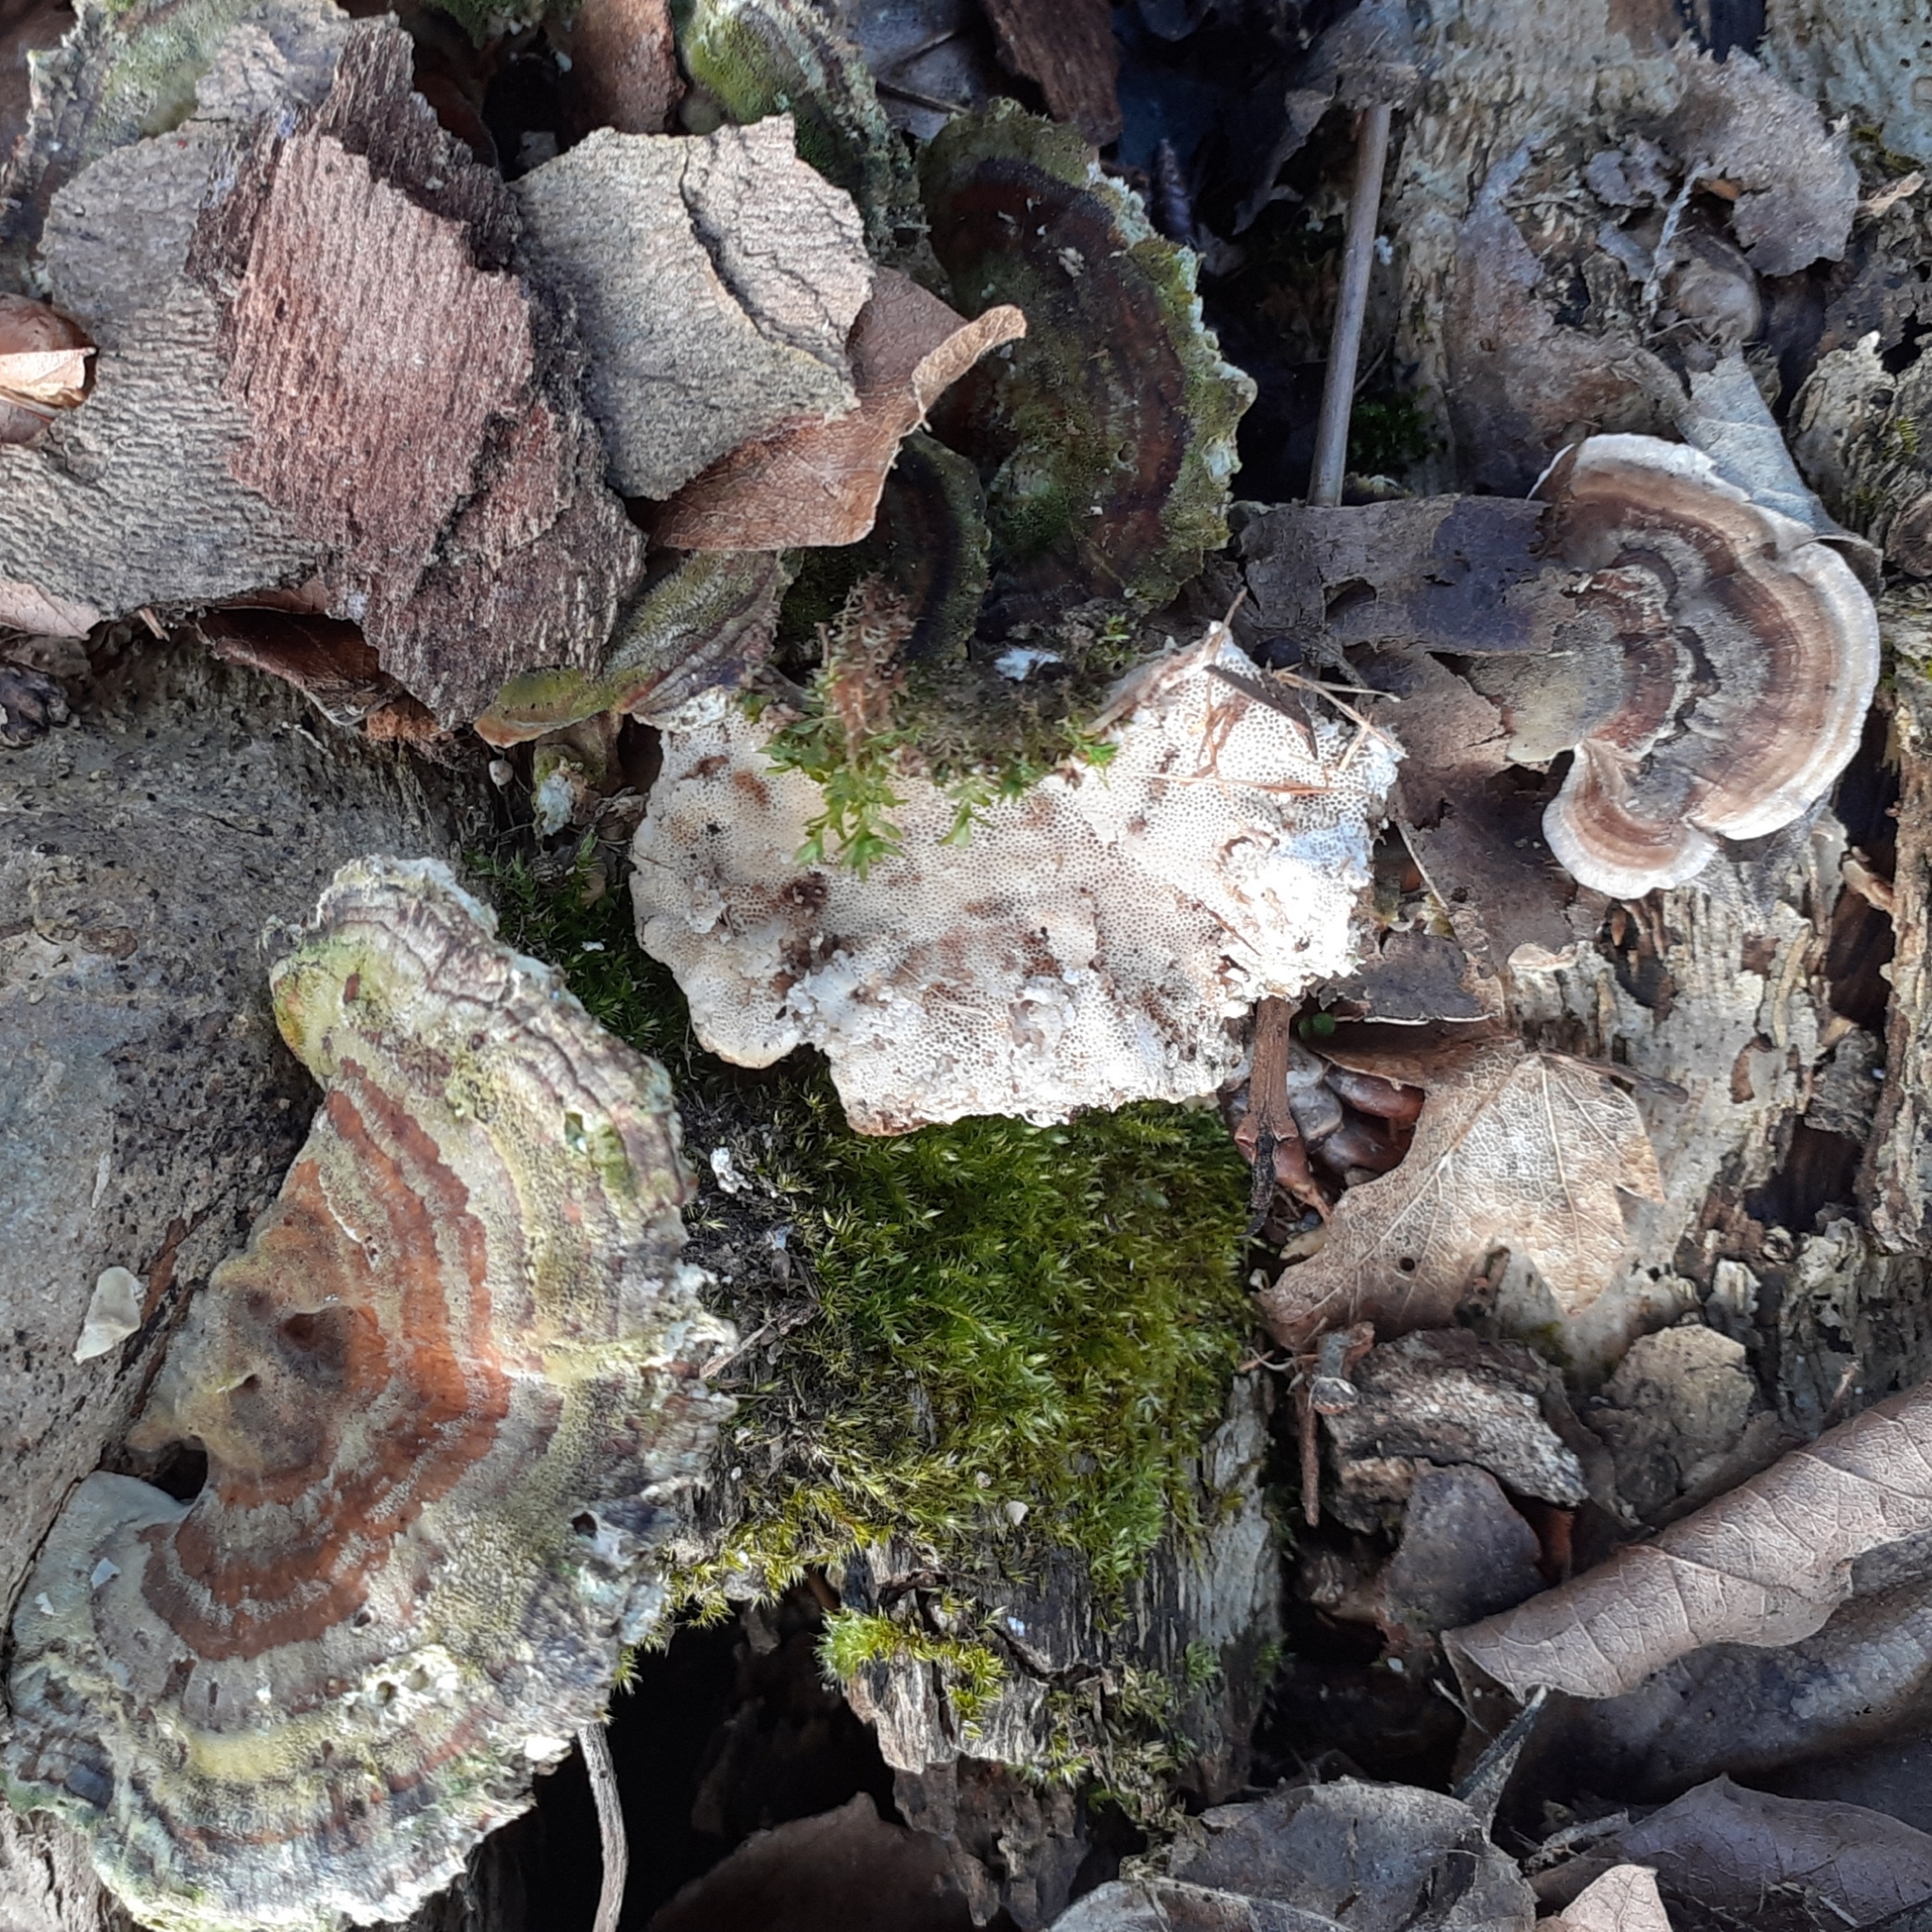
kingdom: Fungi
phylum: Basidiomycota
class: Agaricomycetes
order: Polyporales
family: Polyporaceae
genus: Trametes
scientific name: Trametes versicolor
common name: Turkeytail
